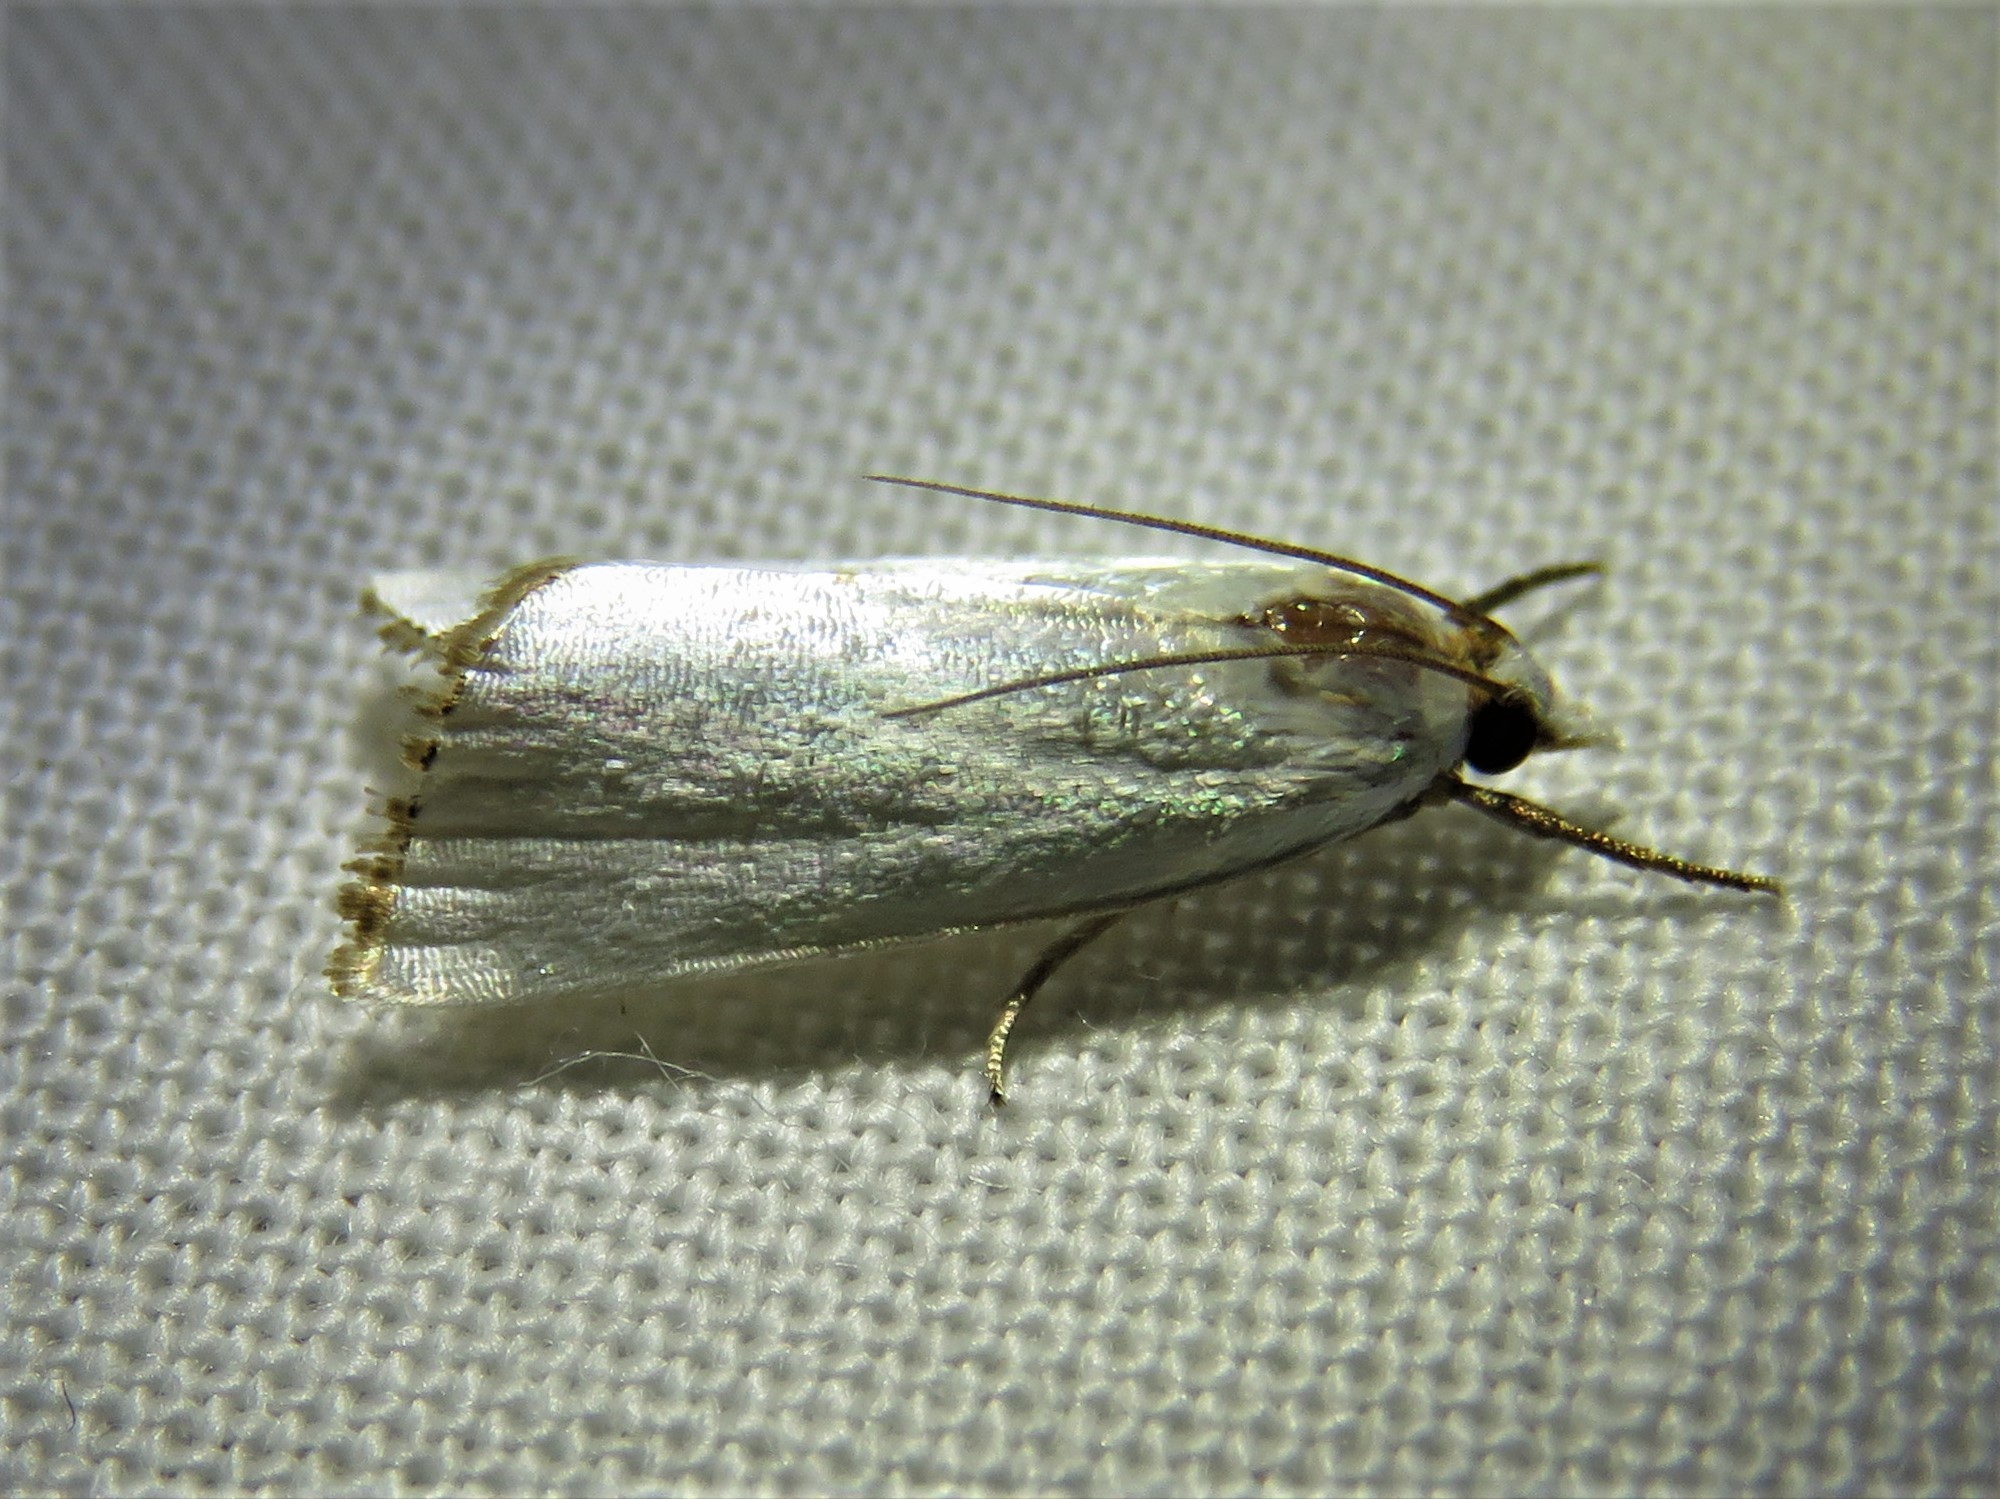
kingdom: Animalia
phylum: Arthropoda
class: Insecta
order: Lepidoptera
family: Crambidae
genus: Argyria
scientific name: Argyria nivalis
